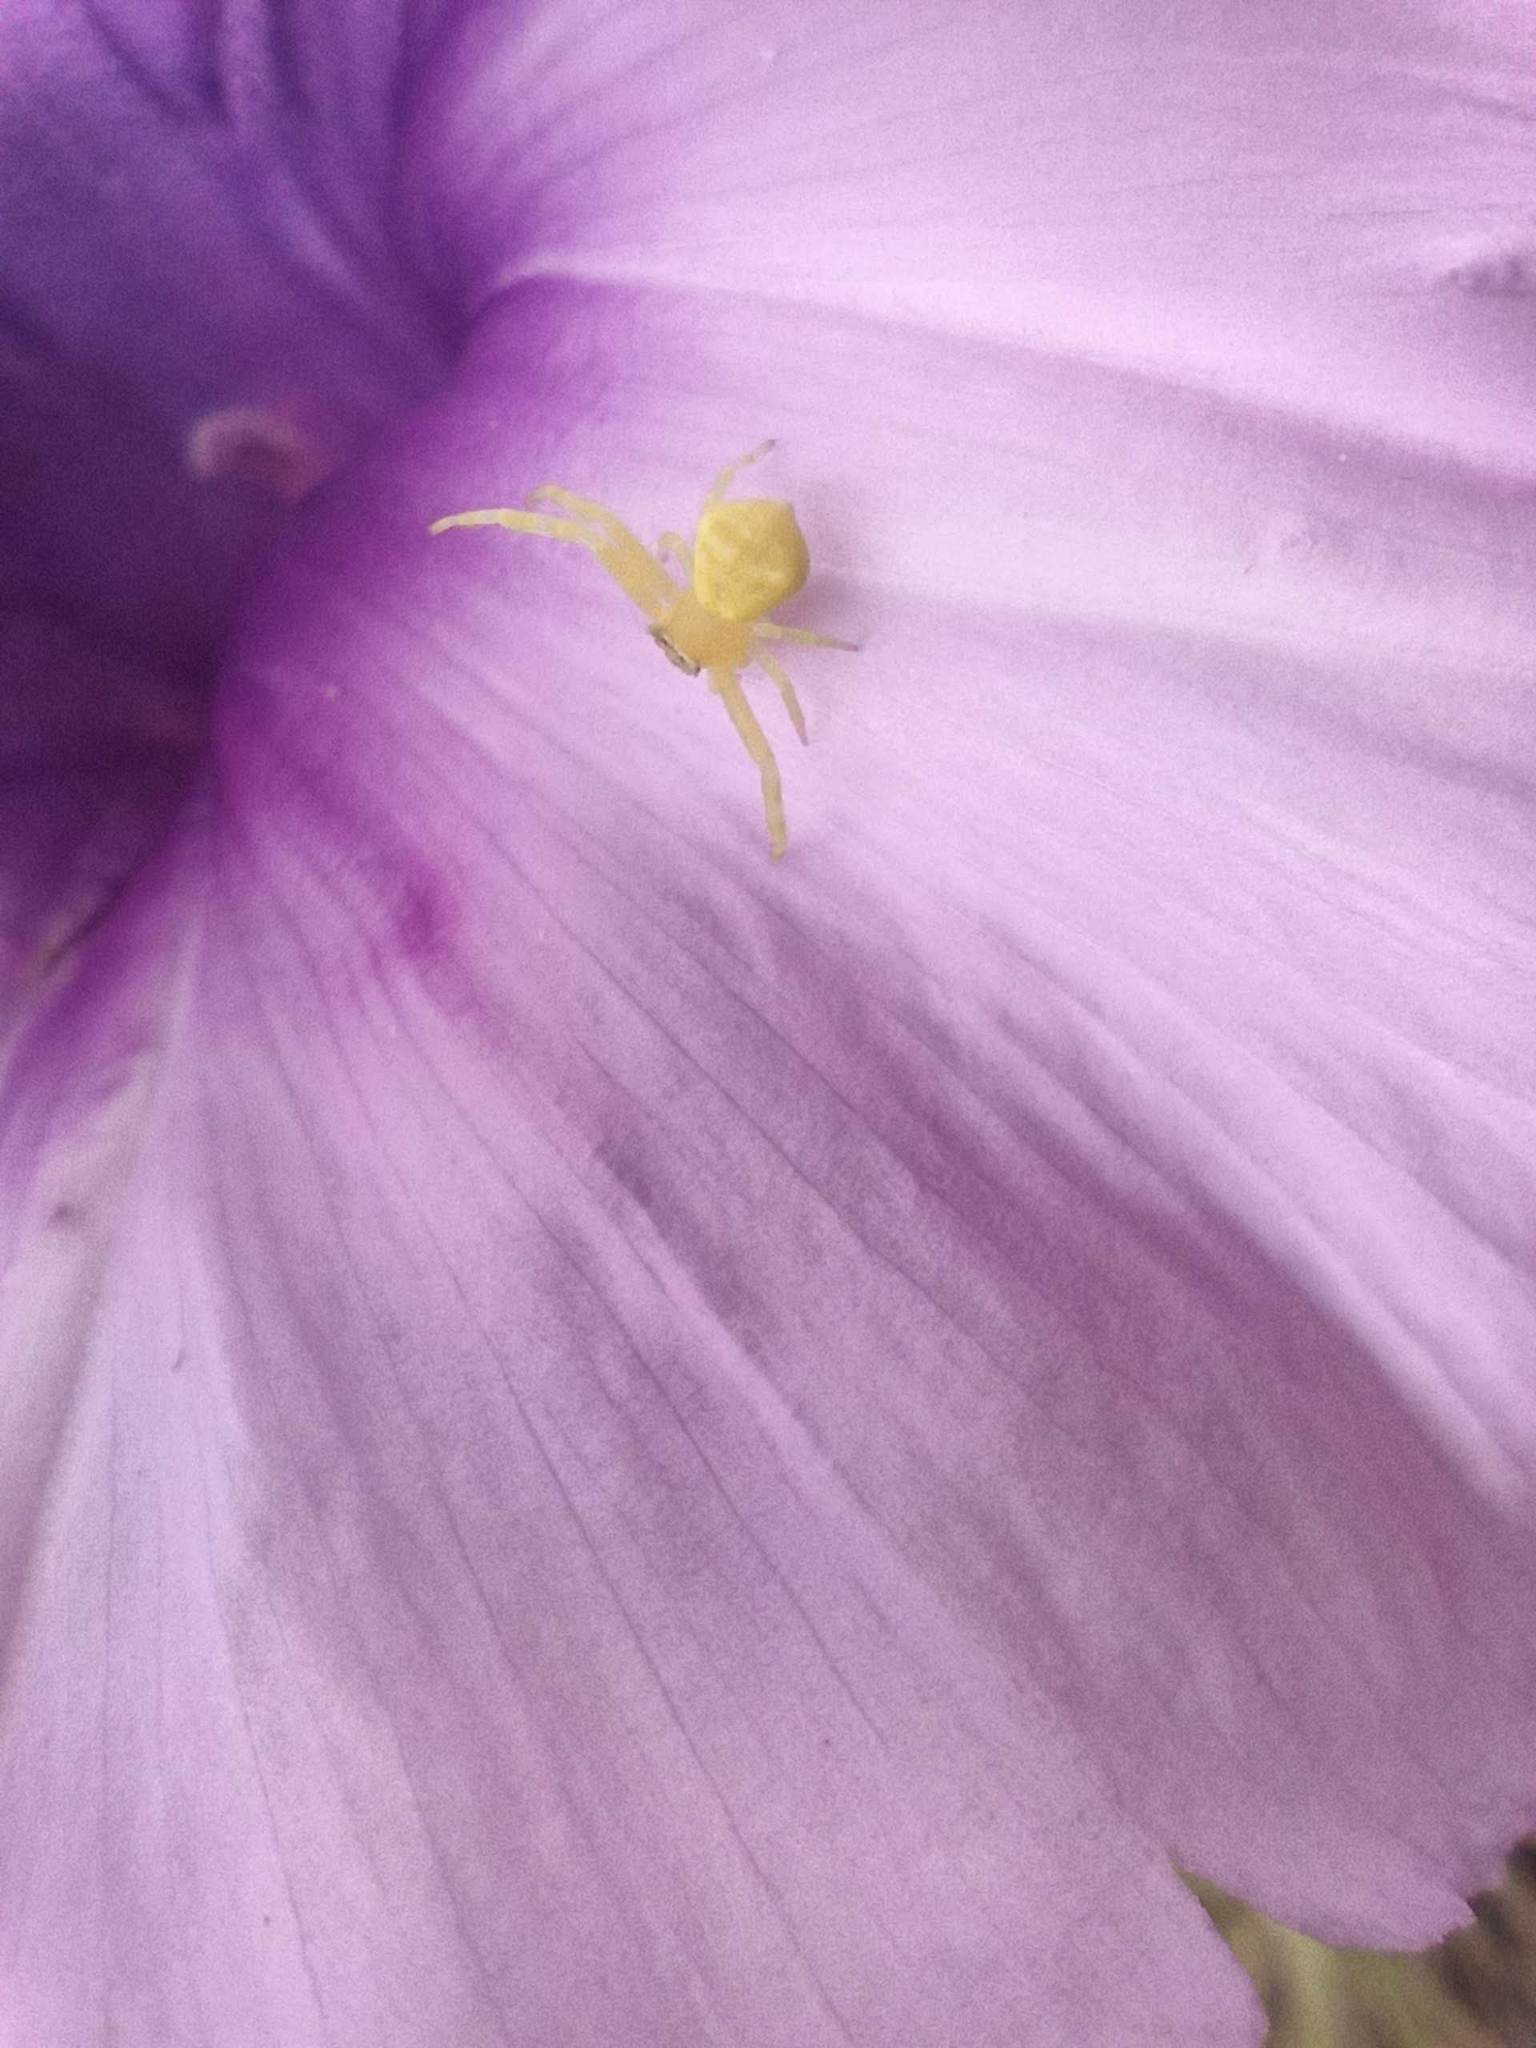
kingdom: Animalia
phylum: Arthropoda
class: Arachnida
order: Araneae
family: Thomisidae
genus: Thomisus
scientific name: Thomisus onustus
